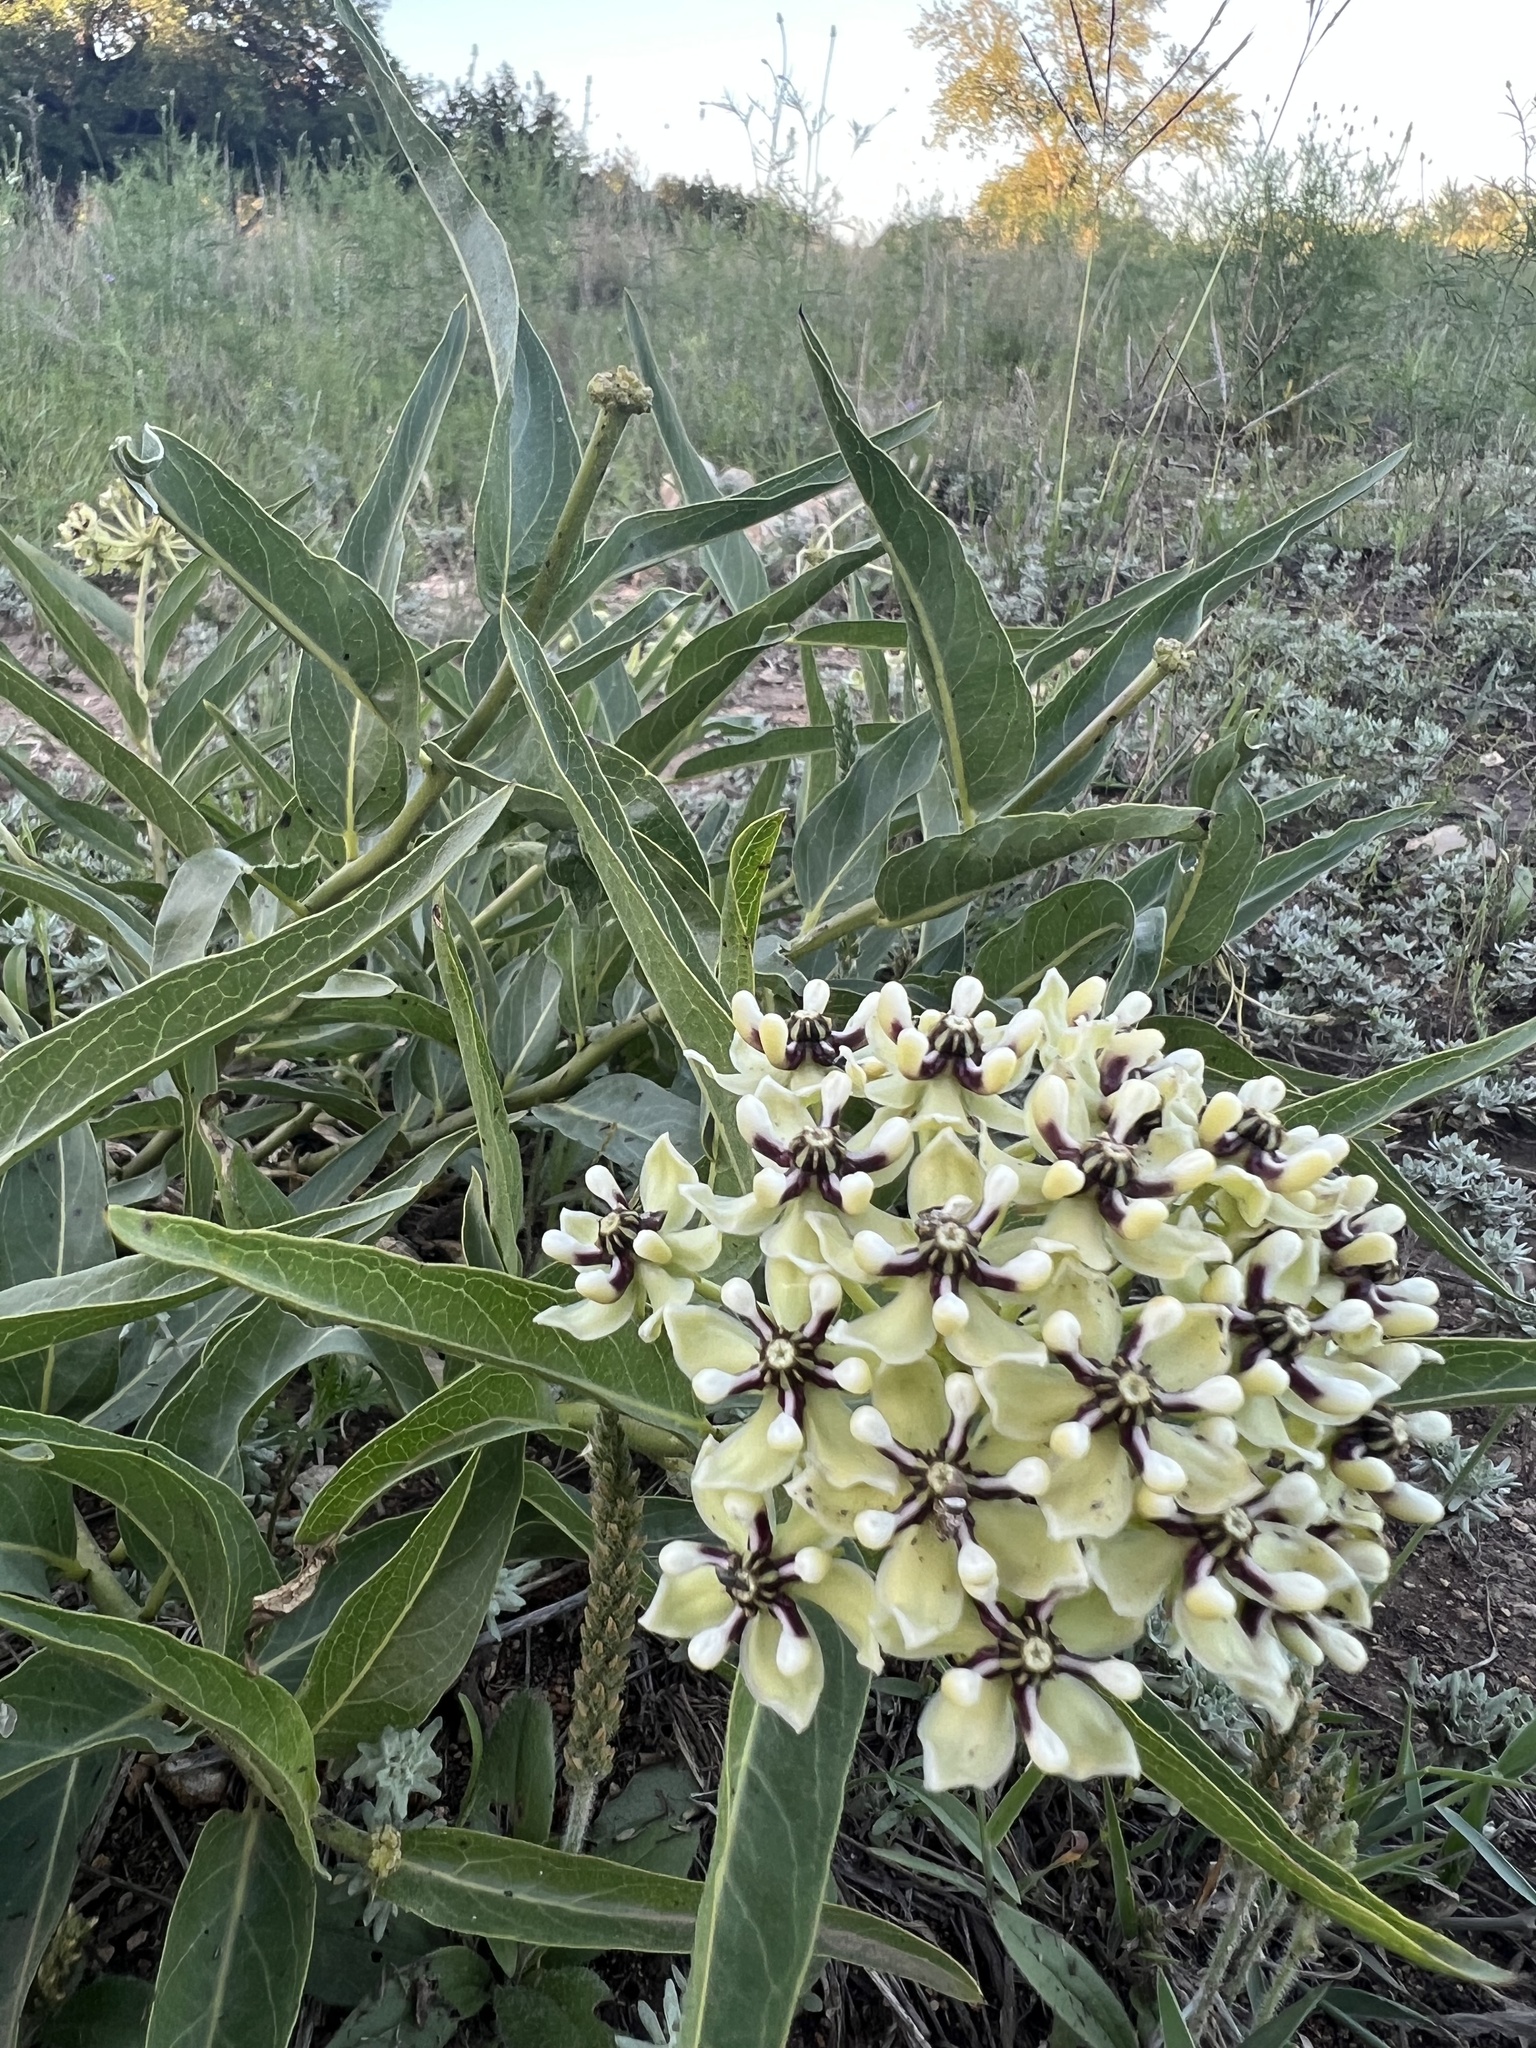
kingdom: Plantae
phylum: Tracheophyta
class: Magnoliopsida
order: Gentianales
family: Apocynaceae
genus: Asclepias
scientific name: Asclepias asperula
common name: Antelope horns
